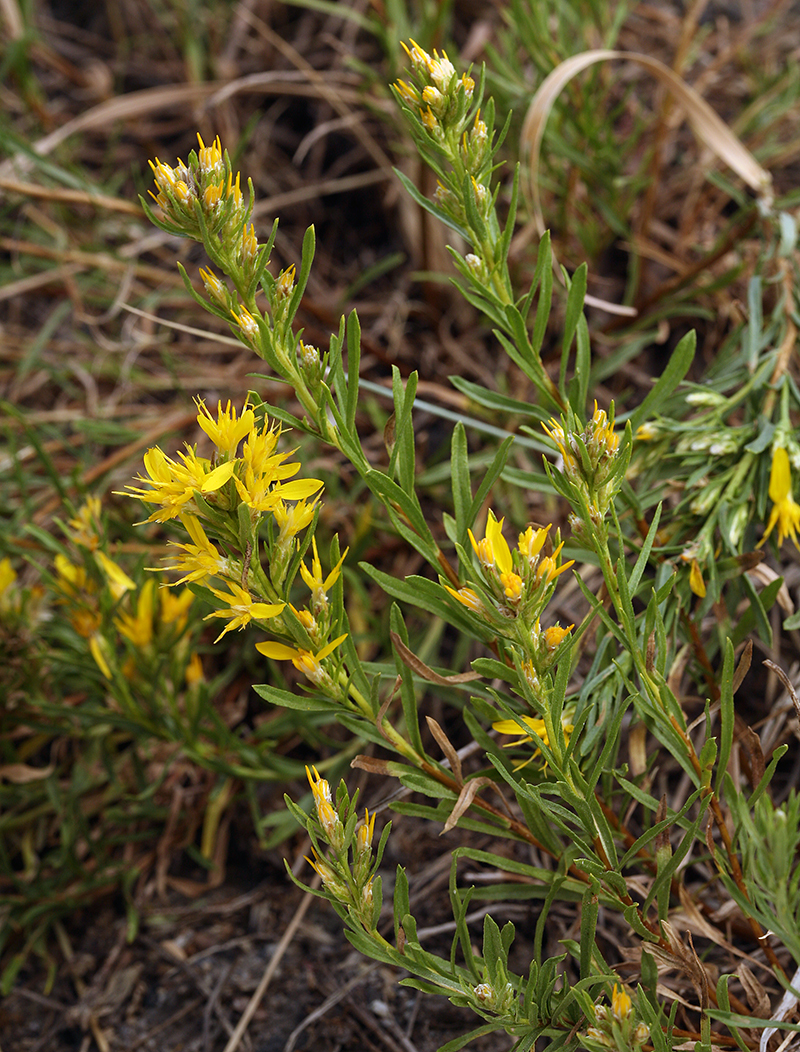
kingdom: Plantae
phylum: Tracheophyta
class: Magnoliopsida
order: Asterales
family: Asteraceae
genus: Ericameria
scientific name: Ericameria bloomeri
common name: Bloomer's goldenbush
